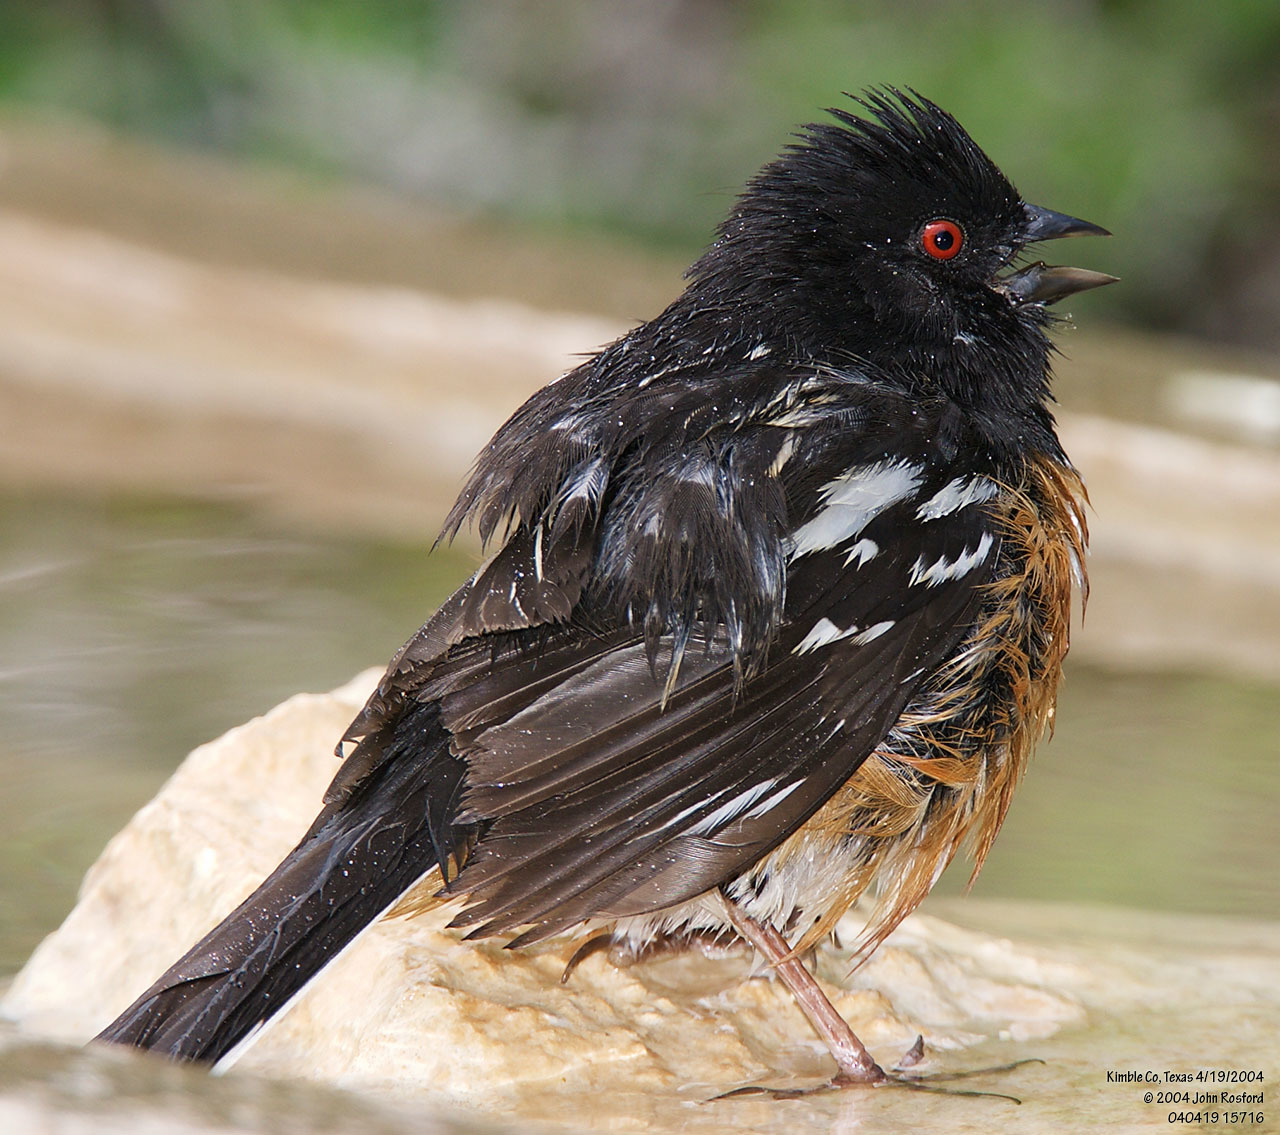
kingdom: Animalia
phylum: Chordata
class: Aves
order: Passeriformes
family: Passerellidae
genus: Pipilo
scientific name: Pipilo maculatus
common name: Spotted towhee
